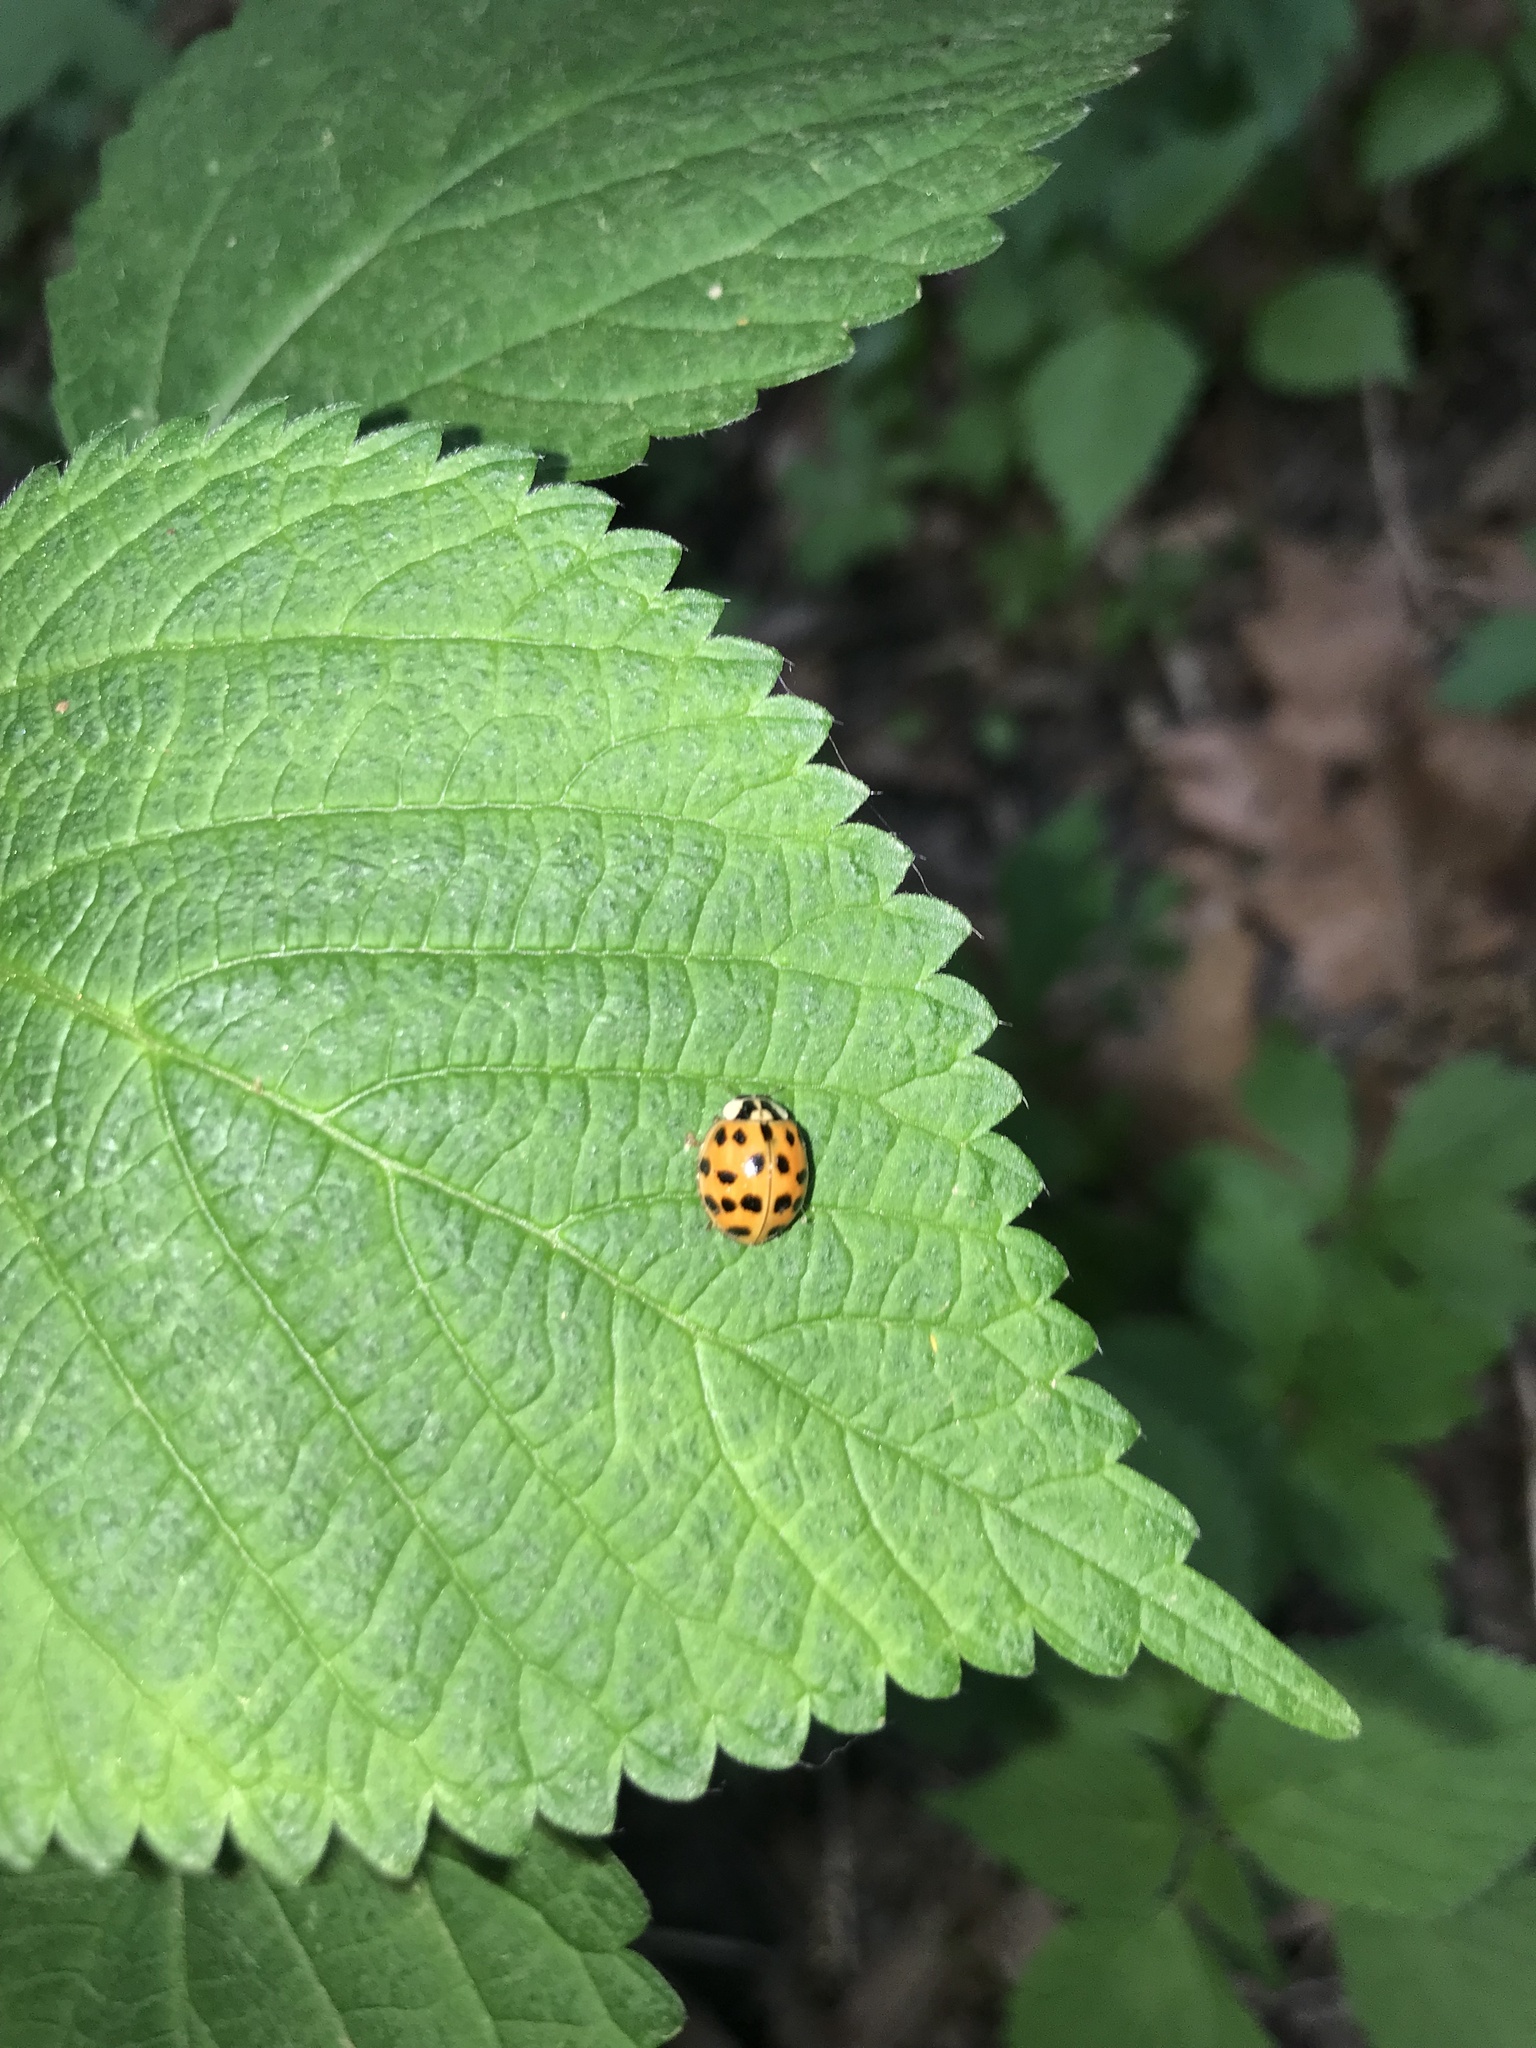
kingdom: Animalia
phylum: Arthropoda
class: Insecta
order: Coleoptera
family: Coccinellidae
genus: Harmonia
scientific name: Harmonia axyridis
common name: Harlequin ladybird
